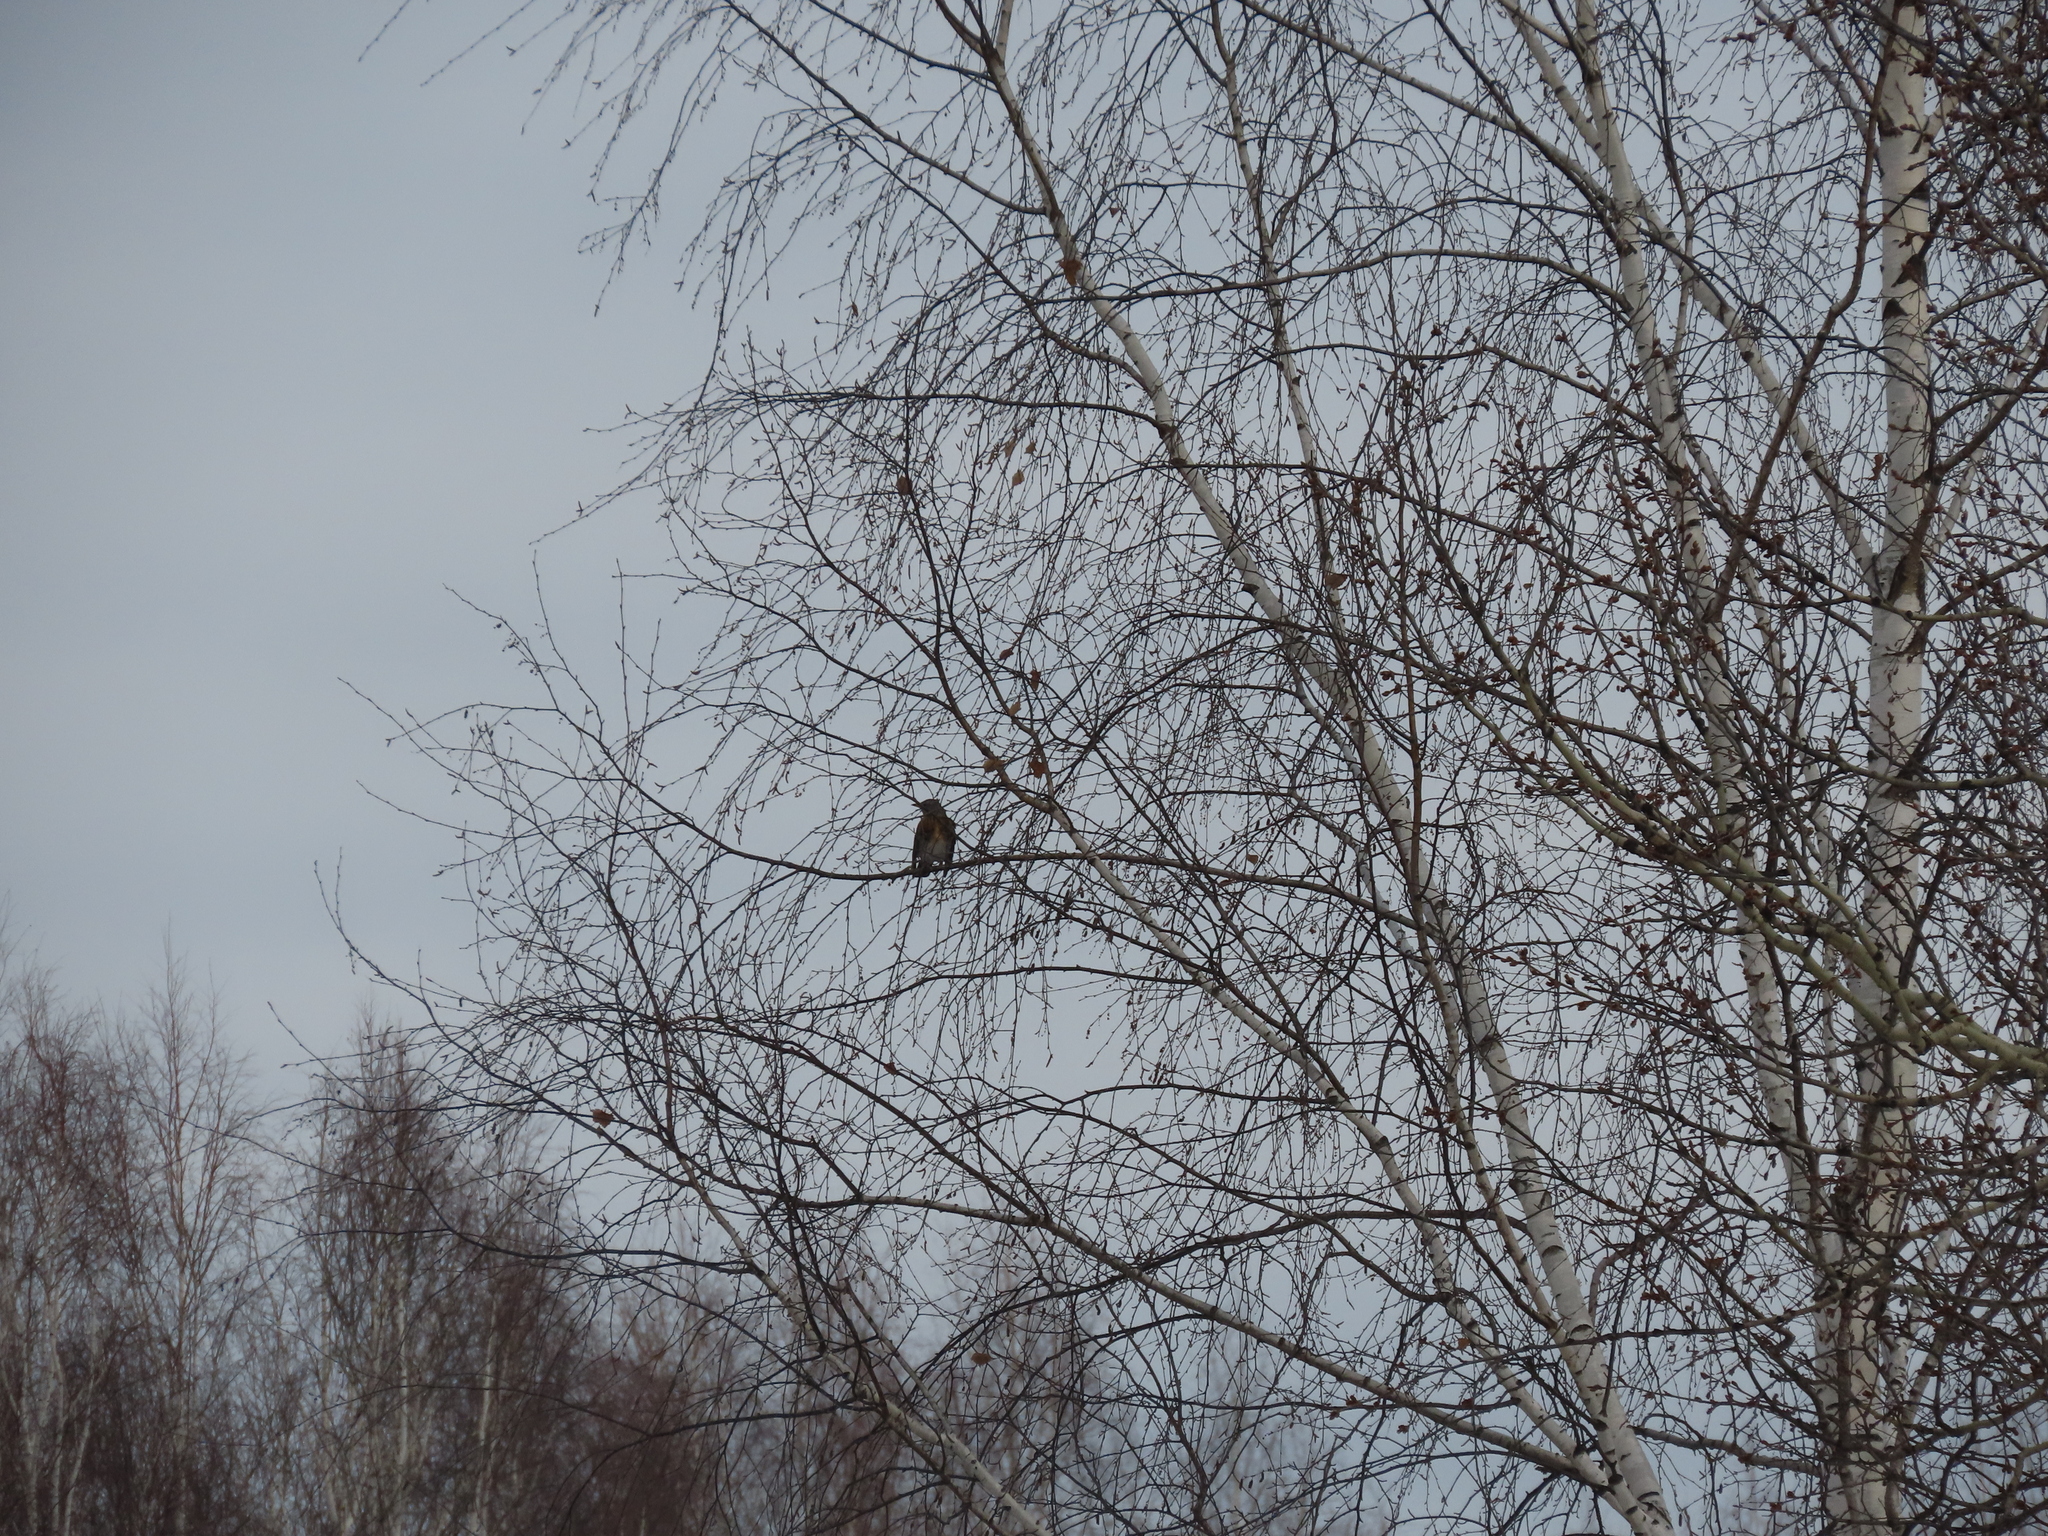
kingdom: Animalia
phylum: Chordata
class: Aves
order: Passeriformes
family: Turdidae
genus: Turdus
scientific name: Turdus pilaris
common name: Fieldfare
